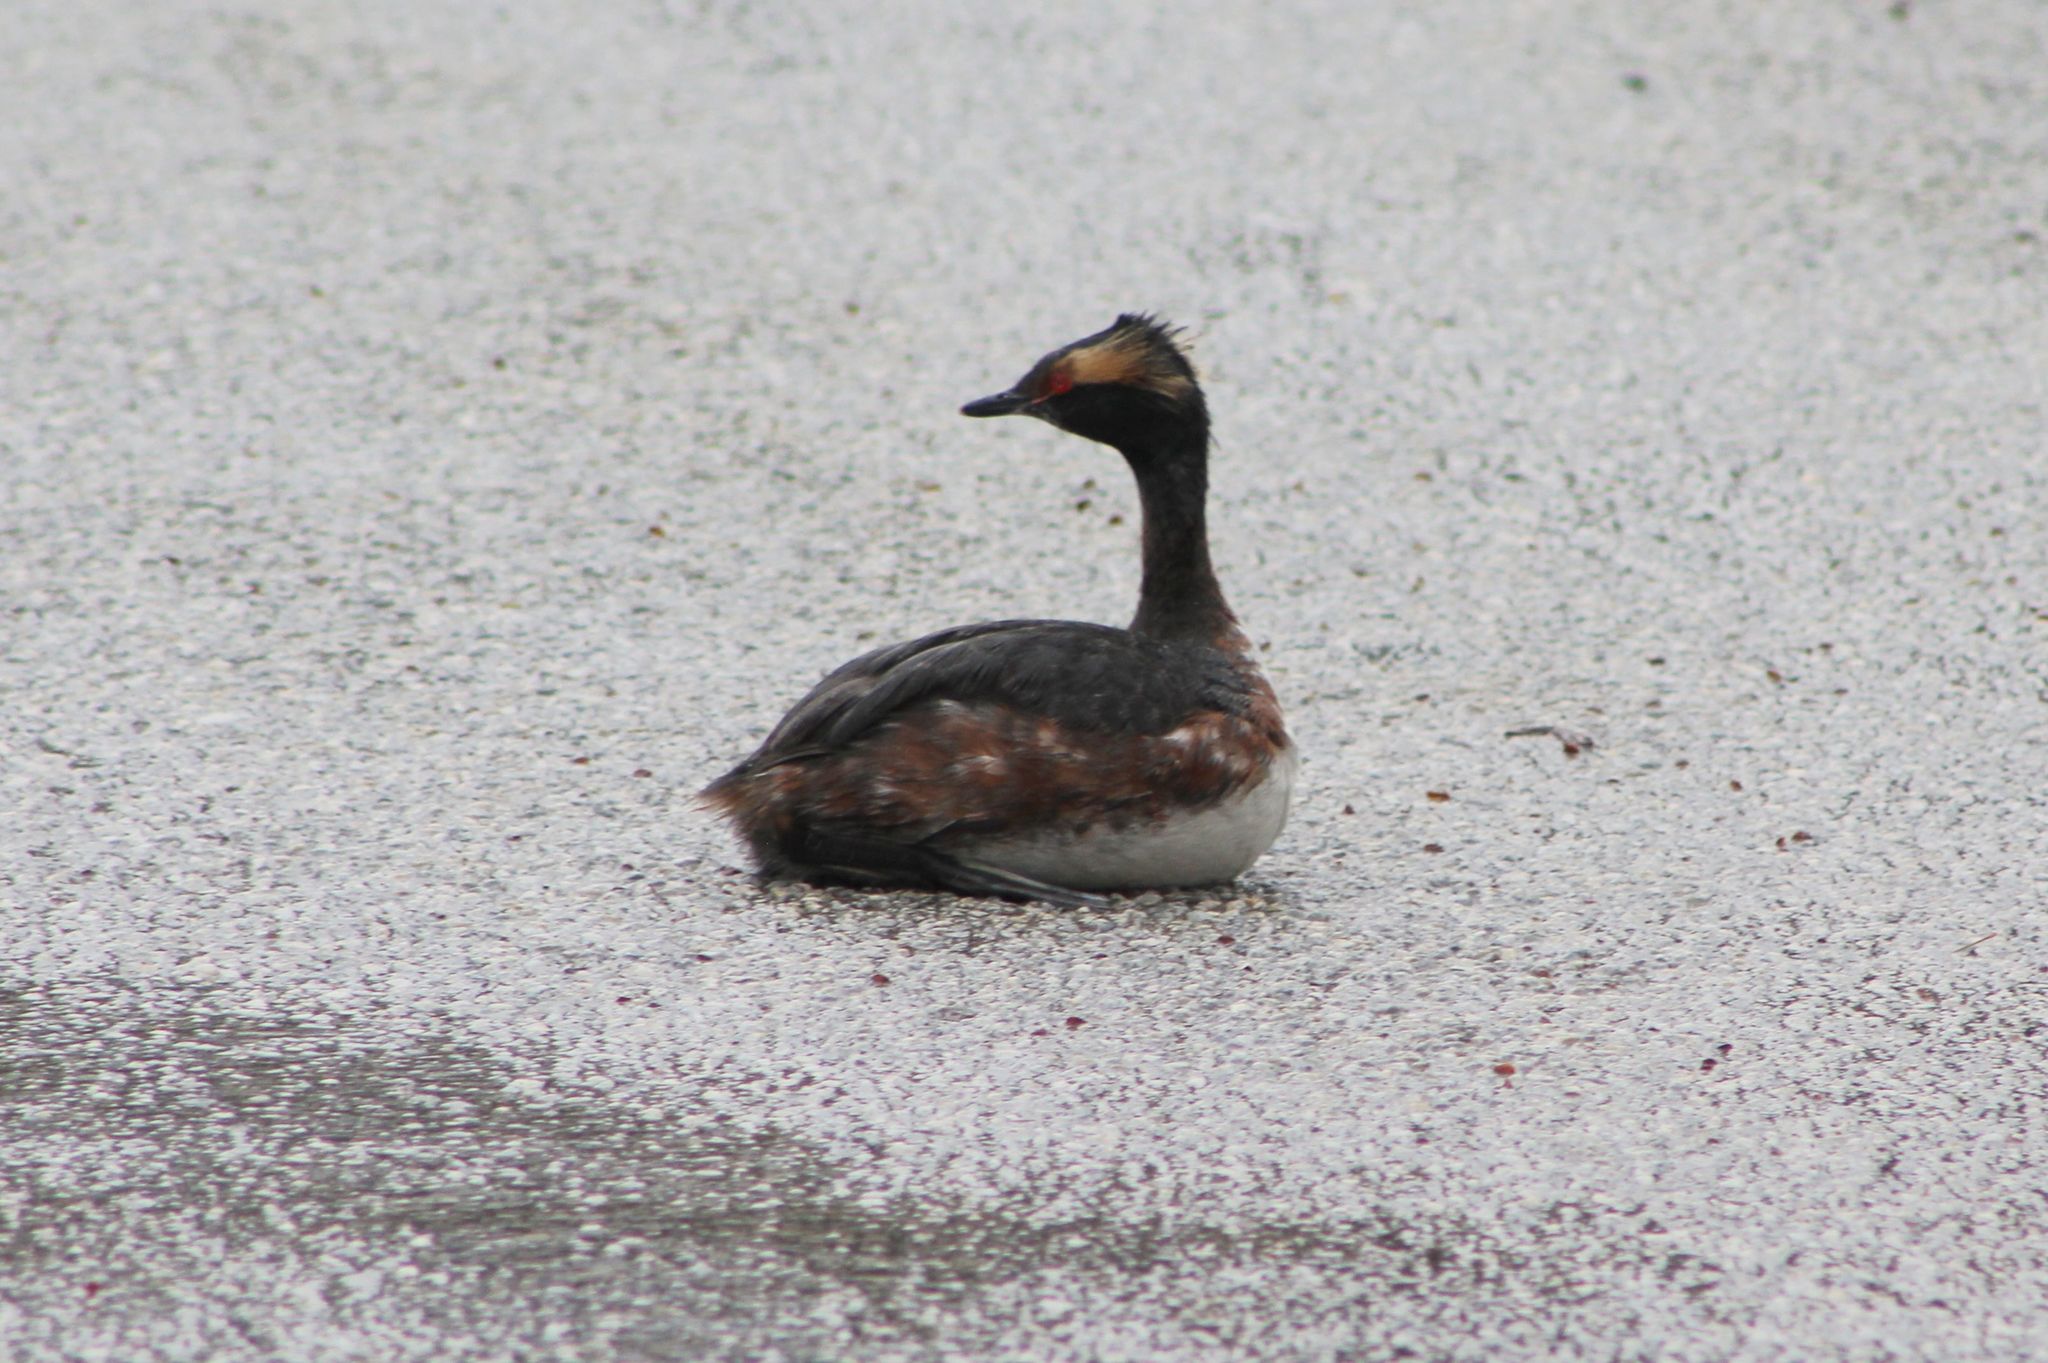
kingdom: Animalia
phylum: Chordata
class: Aves
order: Podicipediformes
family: Podicipedidae
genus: Podiceps
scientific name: Podiceps auritus
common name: Horned grebe
